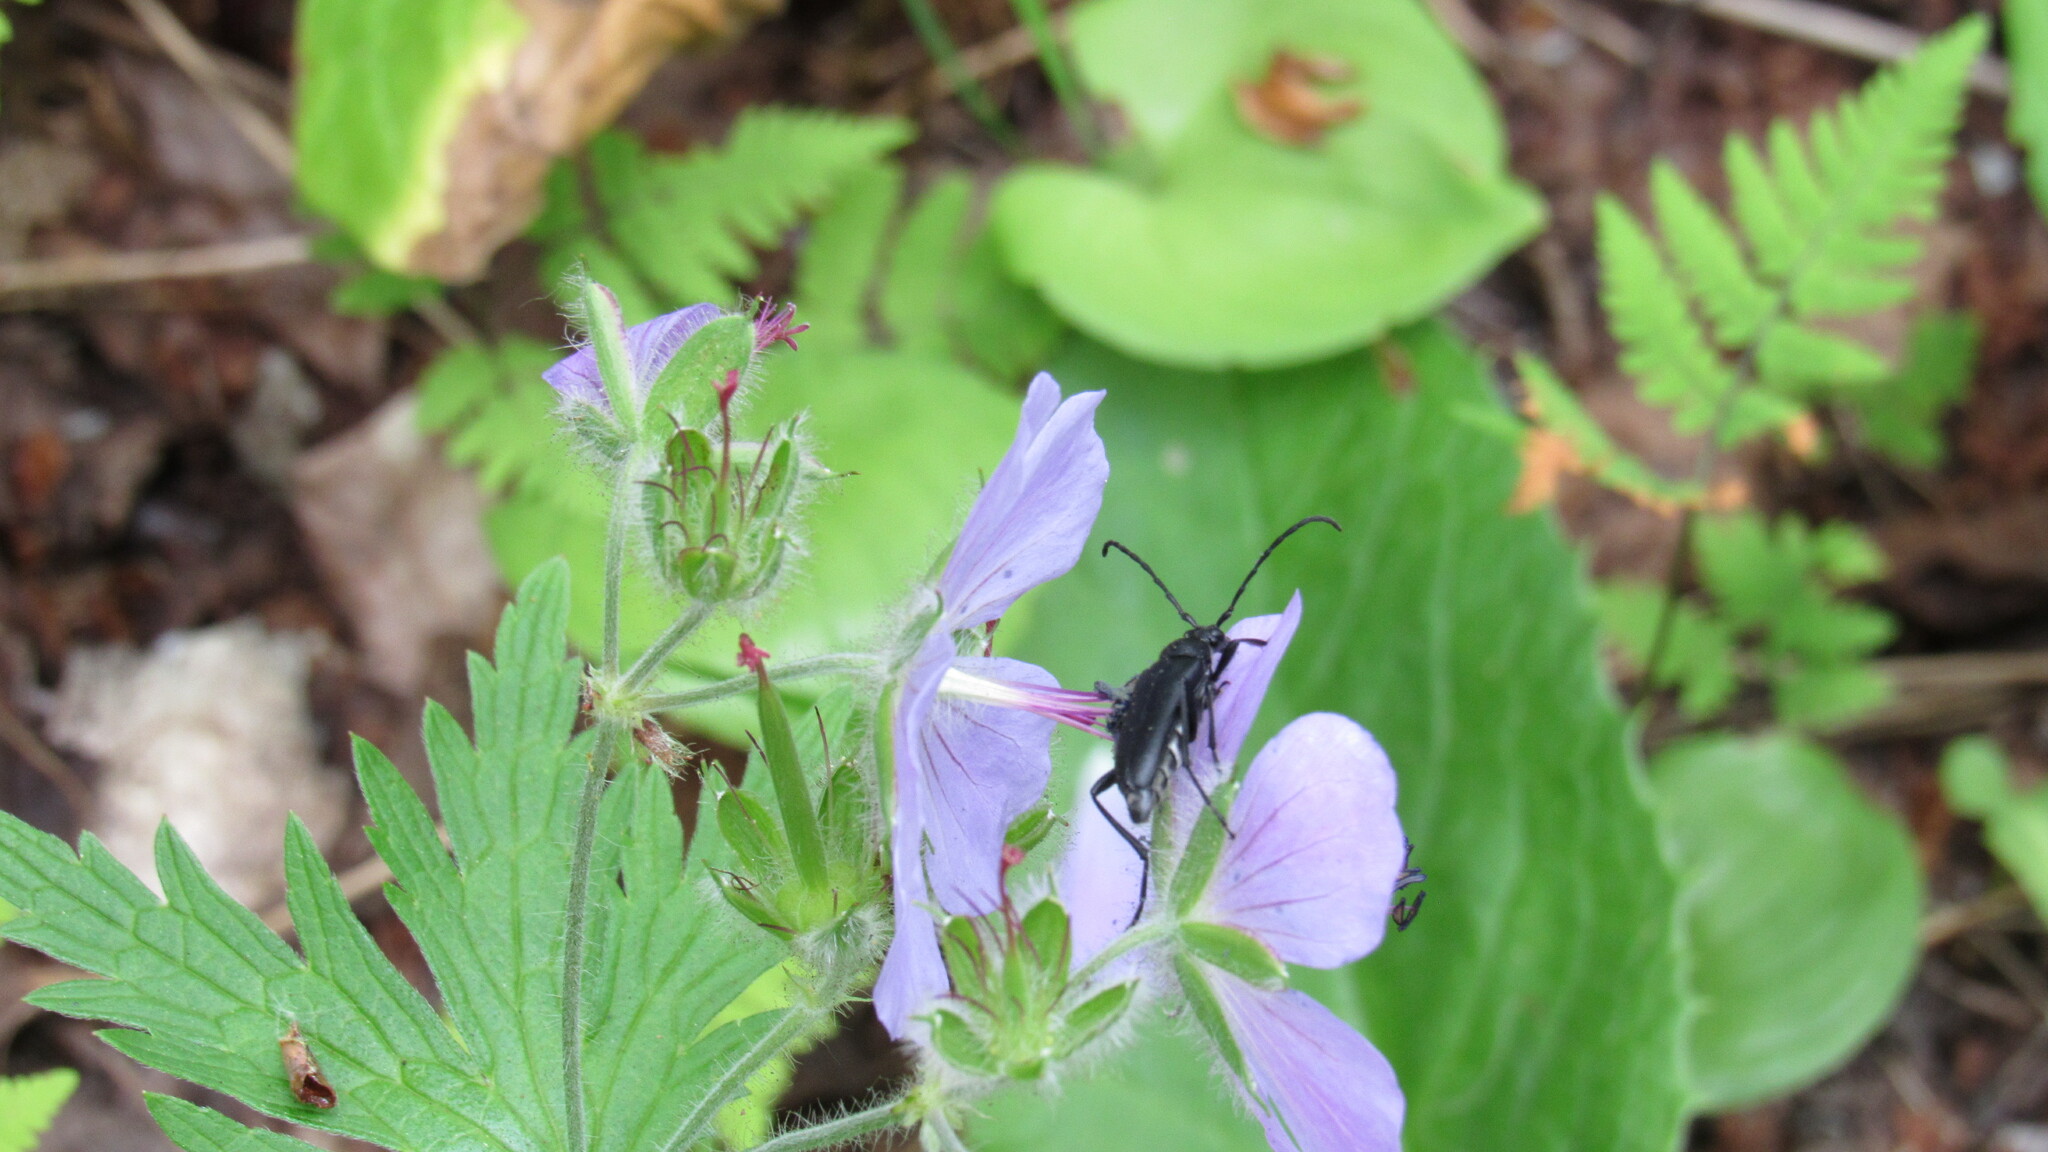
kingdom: Animalia
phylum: Arthropoda
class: Insecta
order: Coleoptera
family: Cerambycidae
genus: Leptura
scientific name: Leptura aethiops
